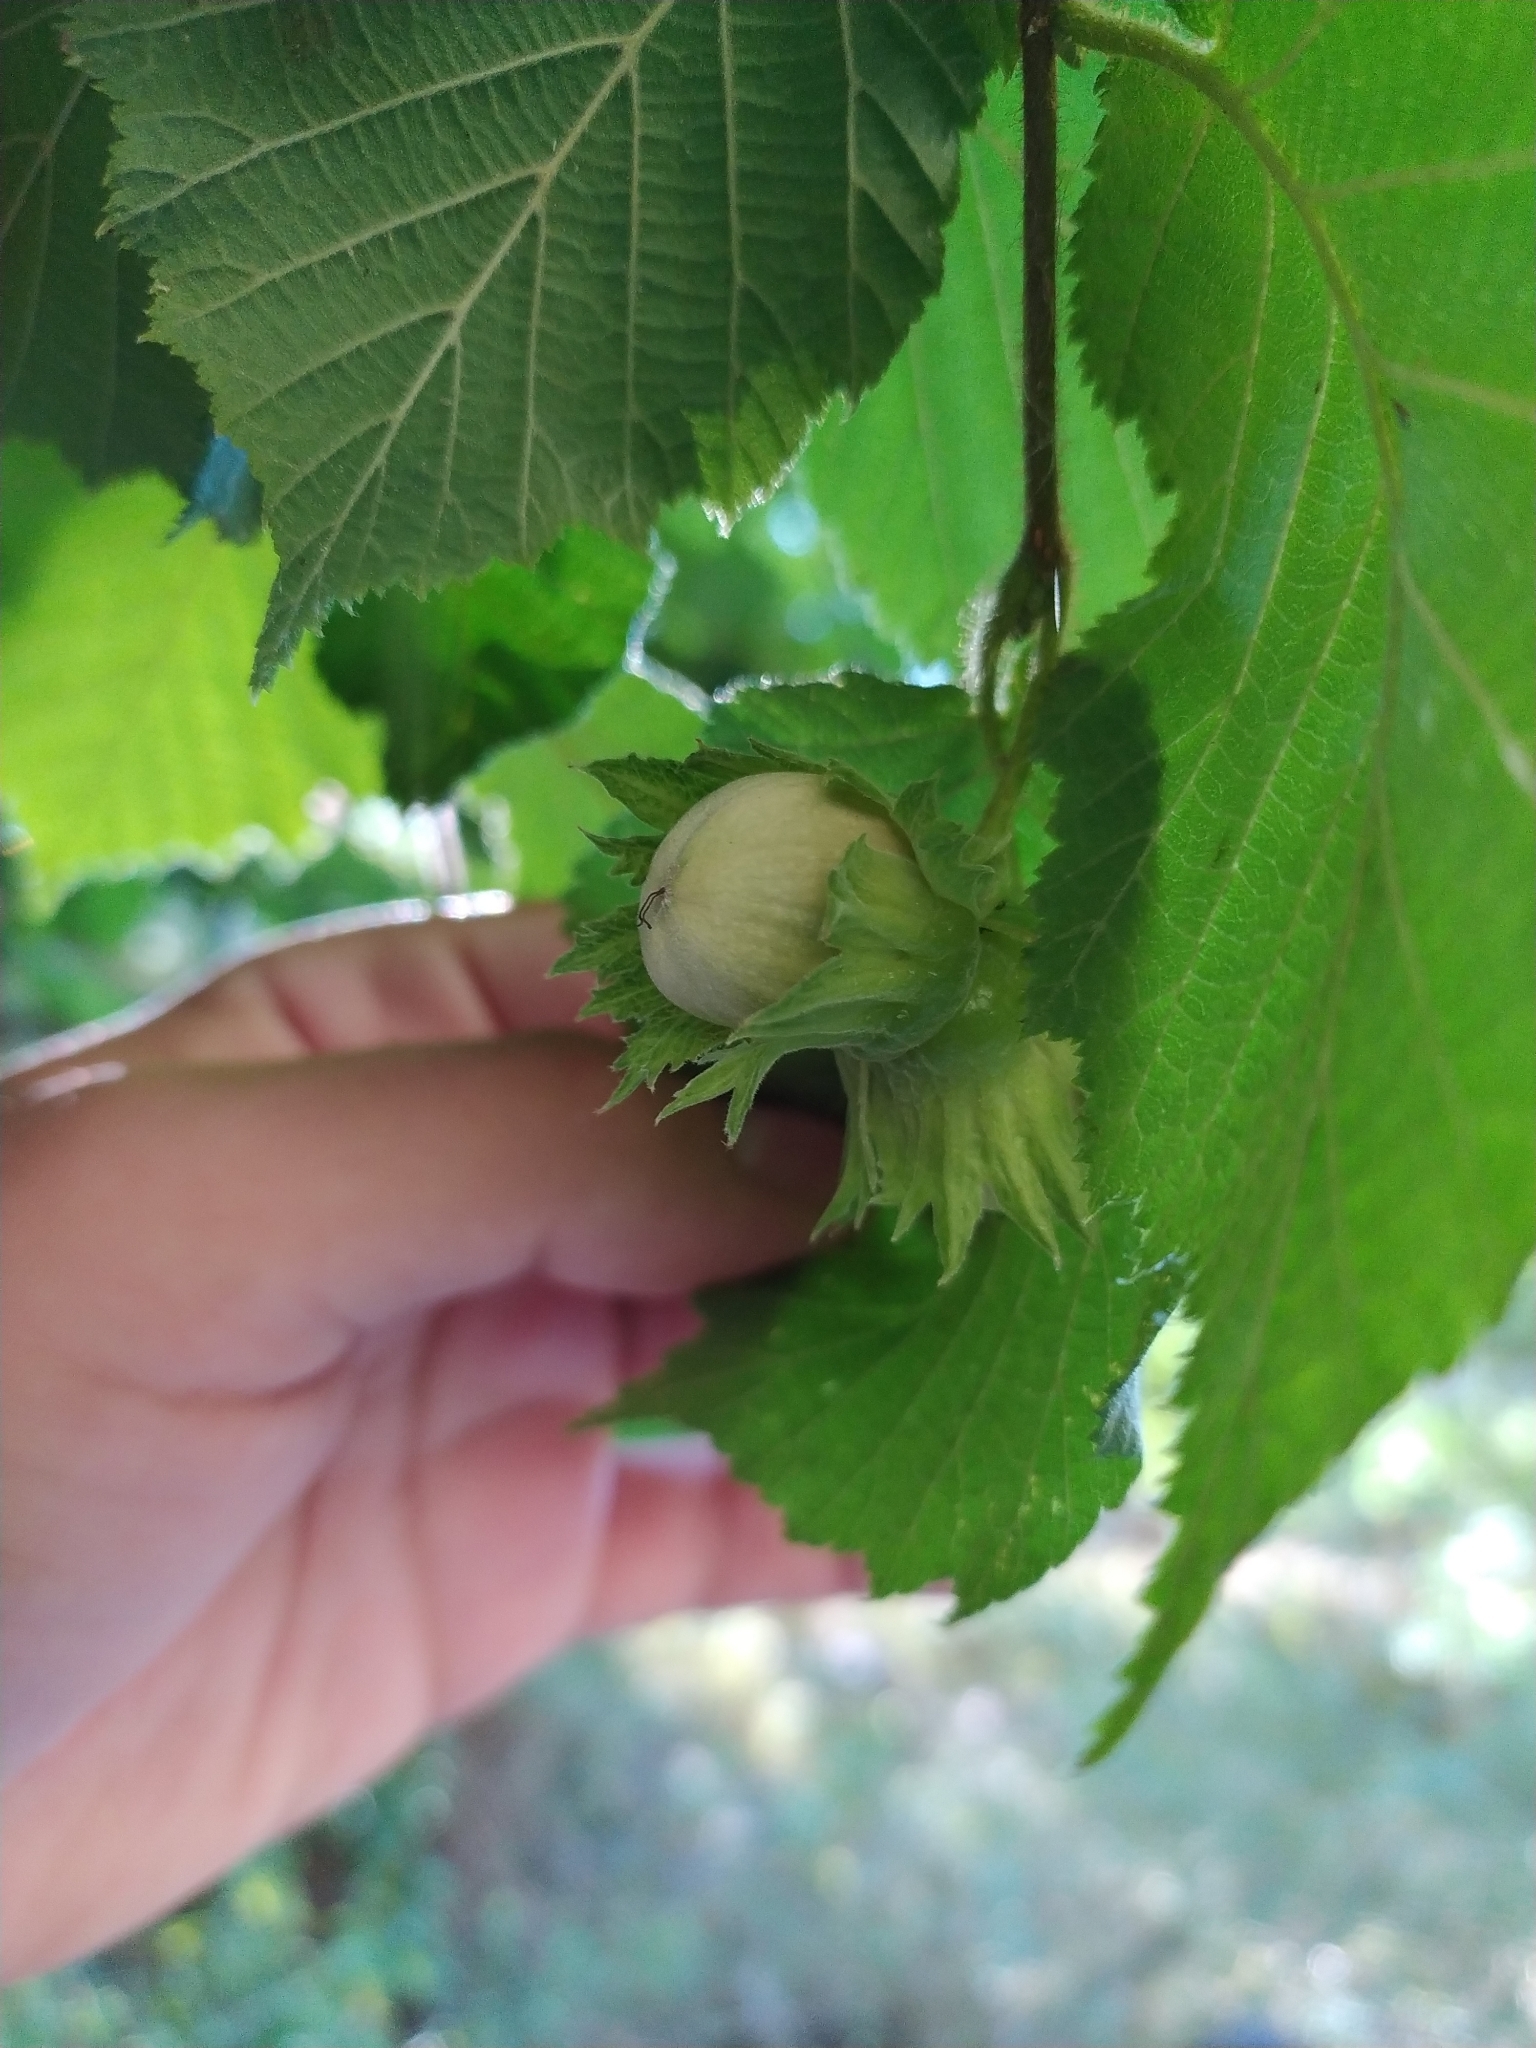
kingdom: Plantae
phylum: Tracheophyta
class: Magnoliopsida
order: Fagales
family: Betulaceae
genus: Corylus
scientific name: Corylus avellana
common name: European hazel
